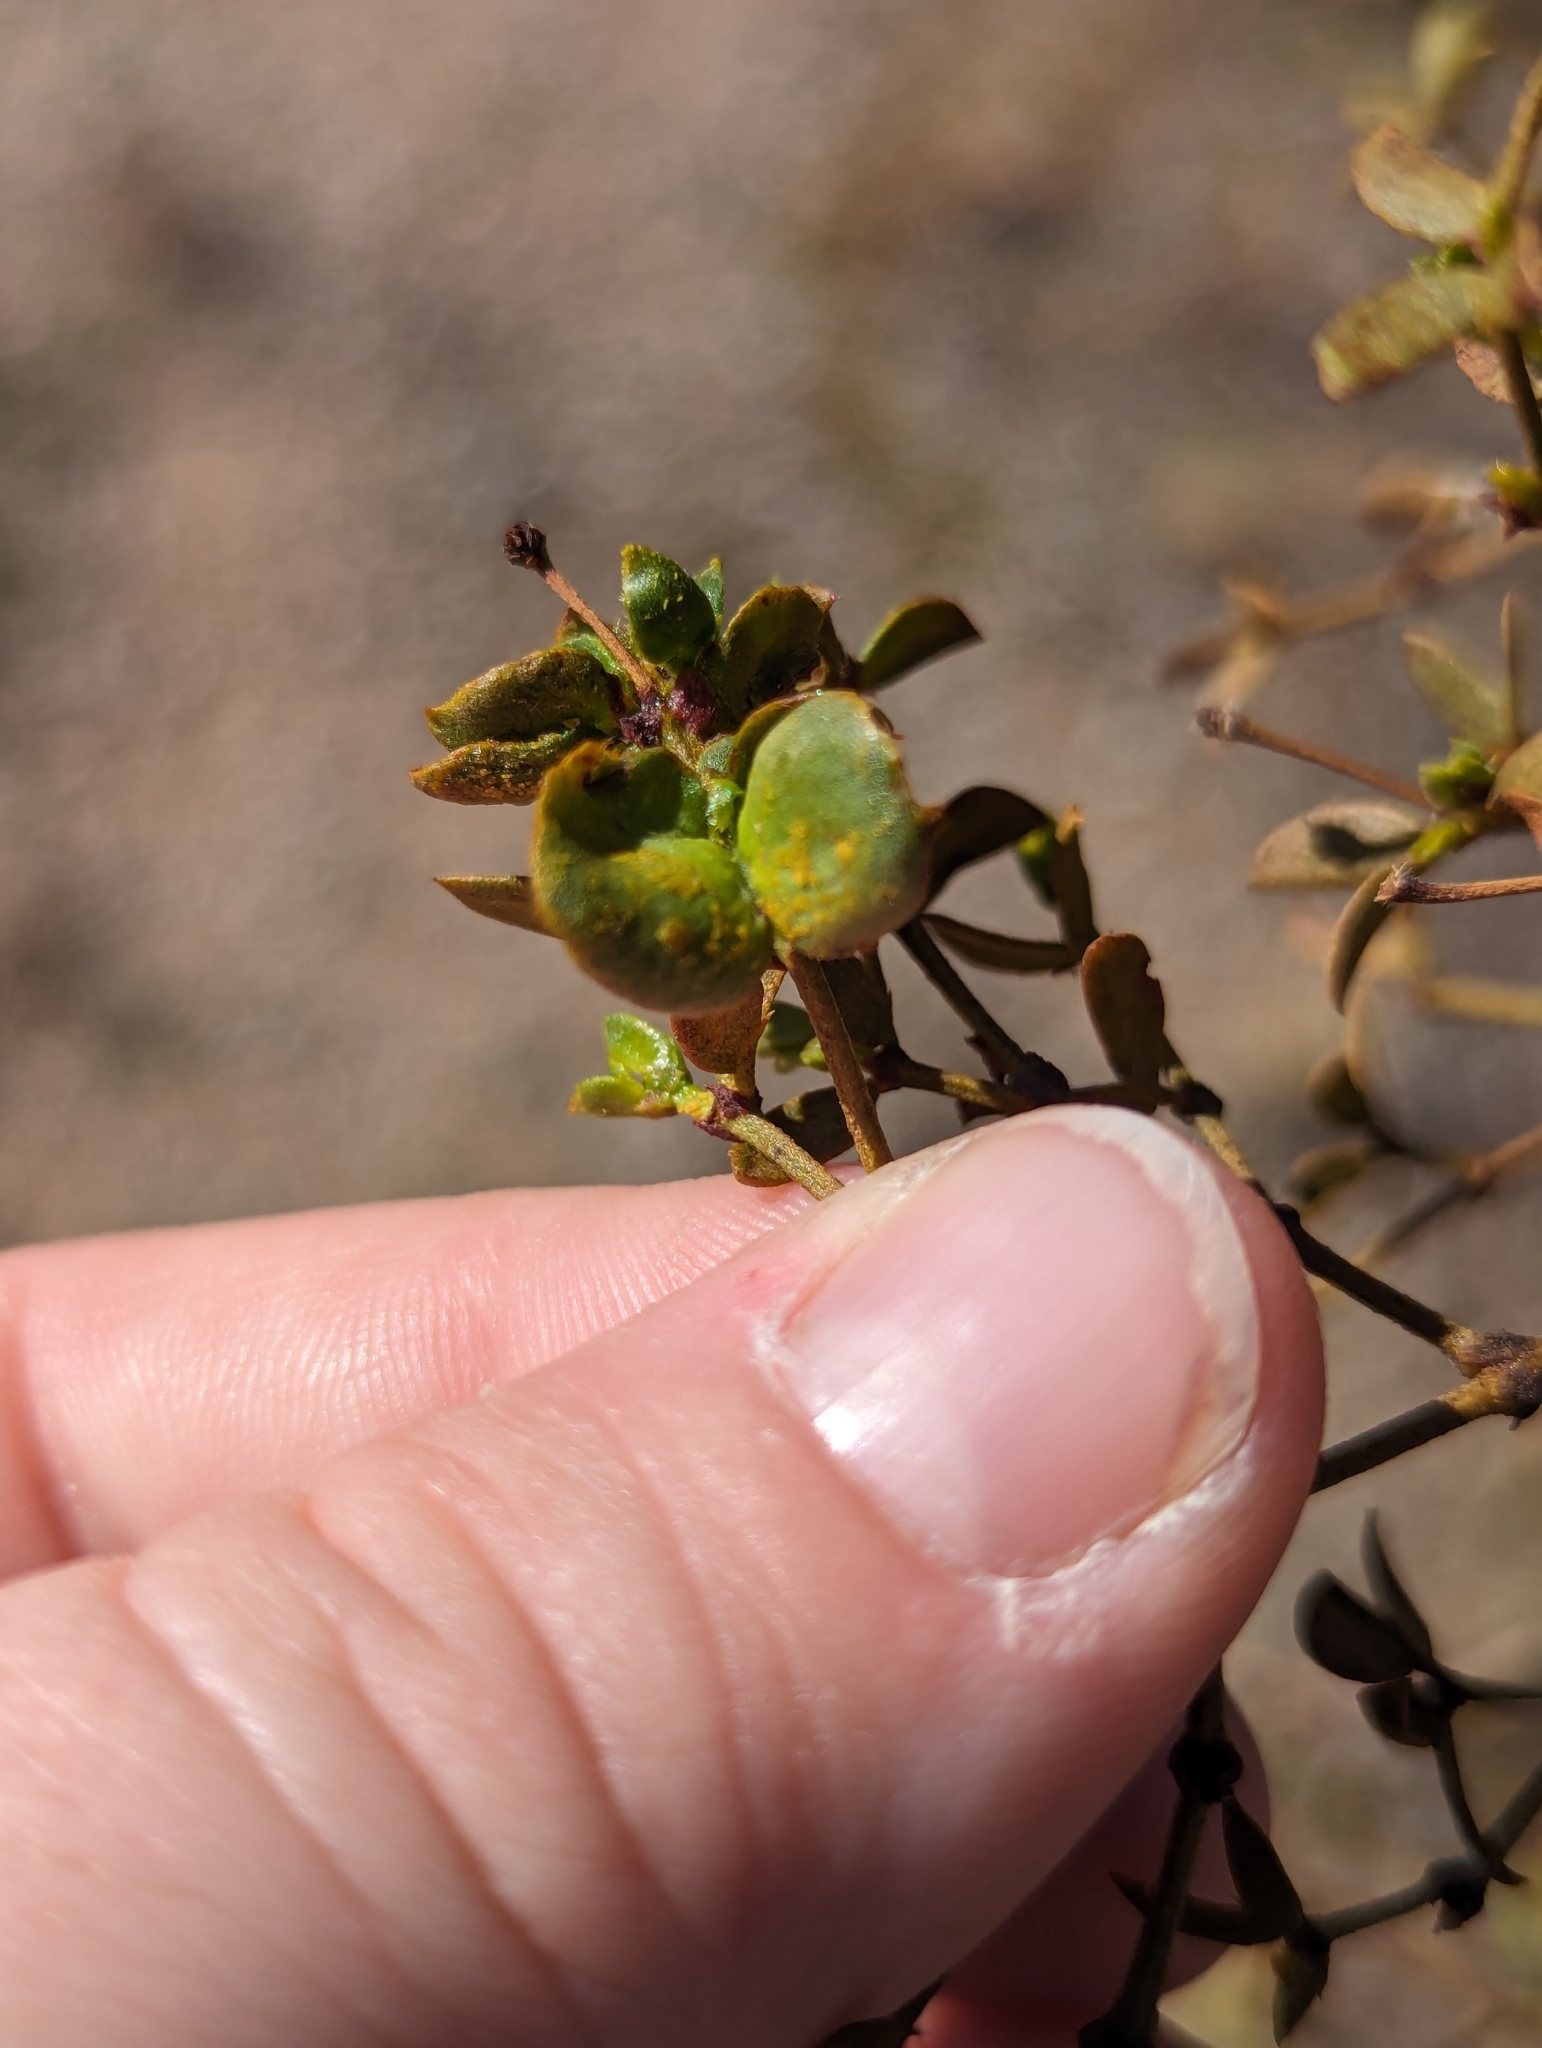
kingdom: Animalia
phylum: Arthropoda
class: Insecta
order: Diptera
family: Cecidomyiidae
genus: Contarinia
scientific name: Contarinia
